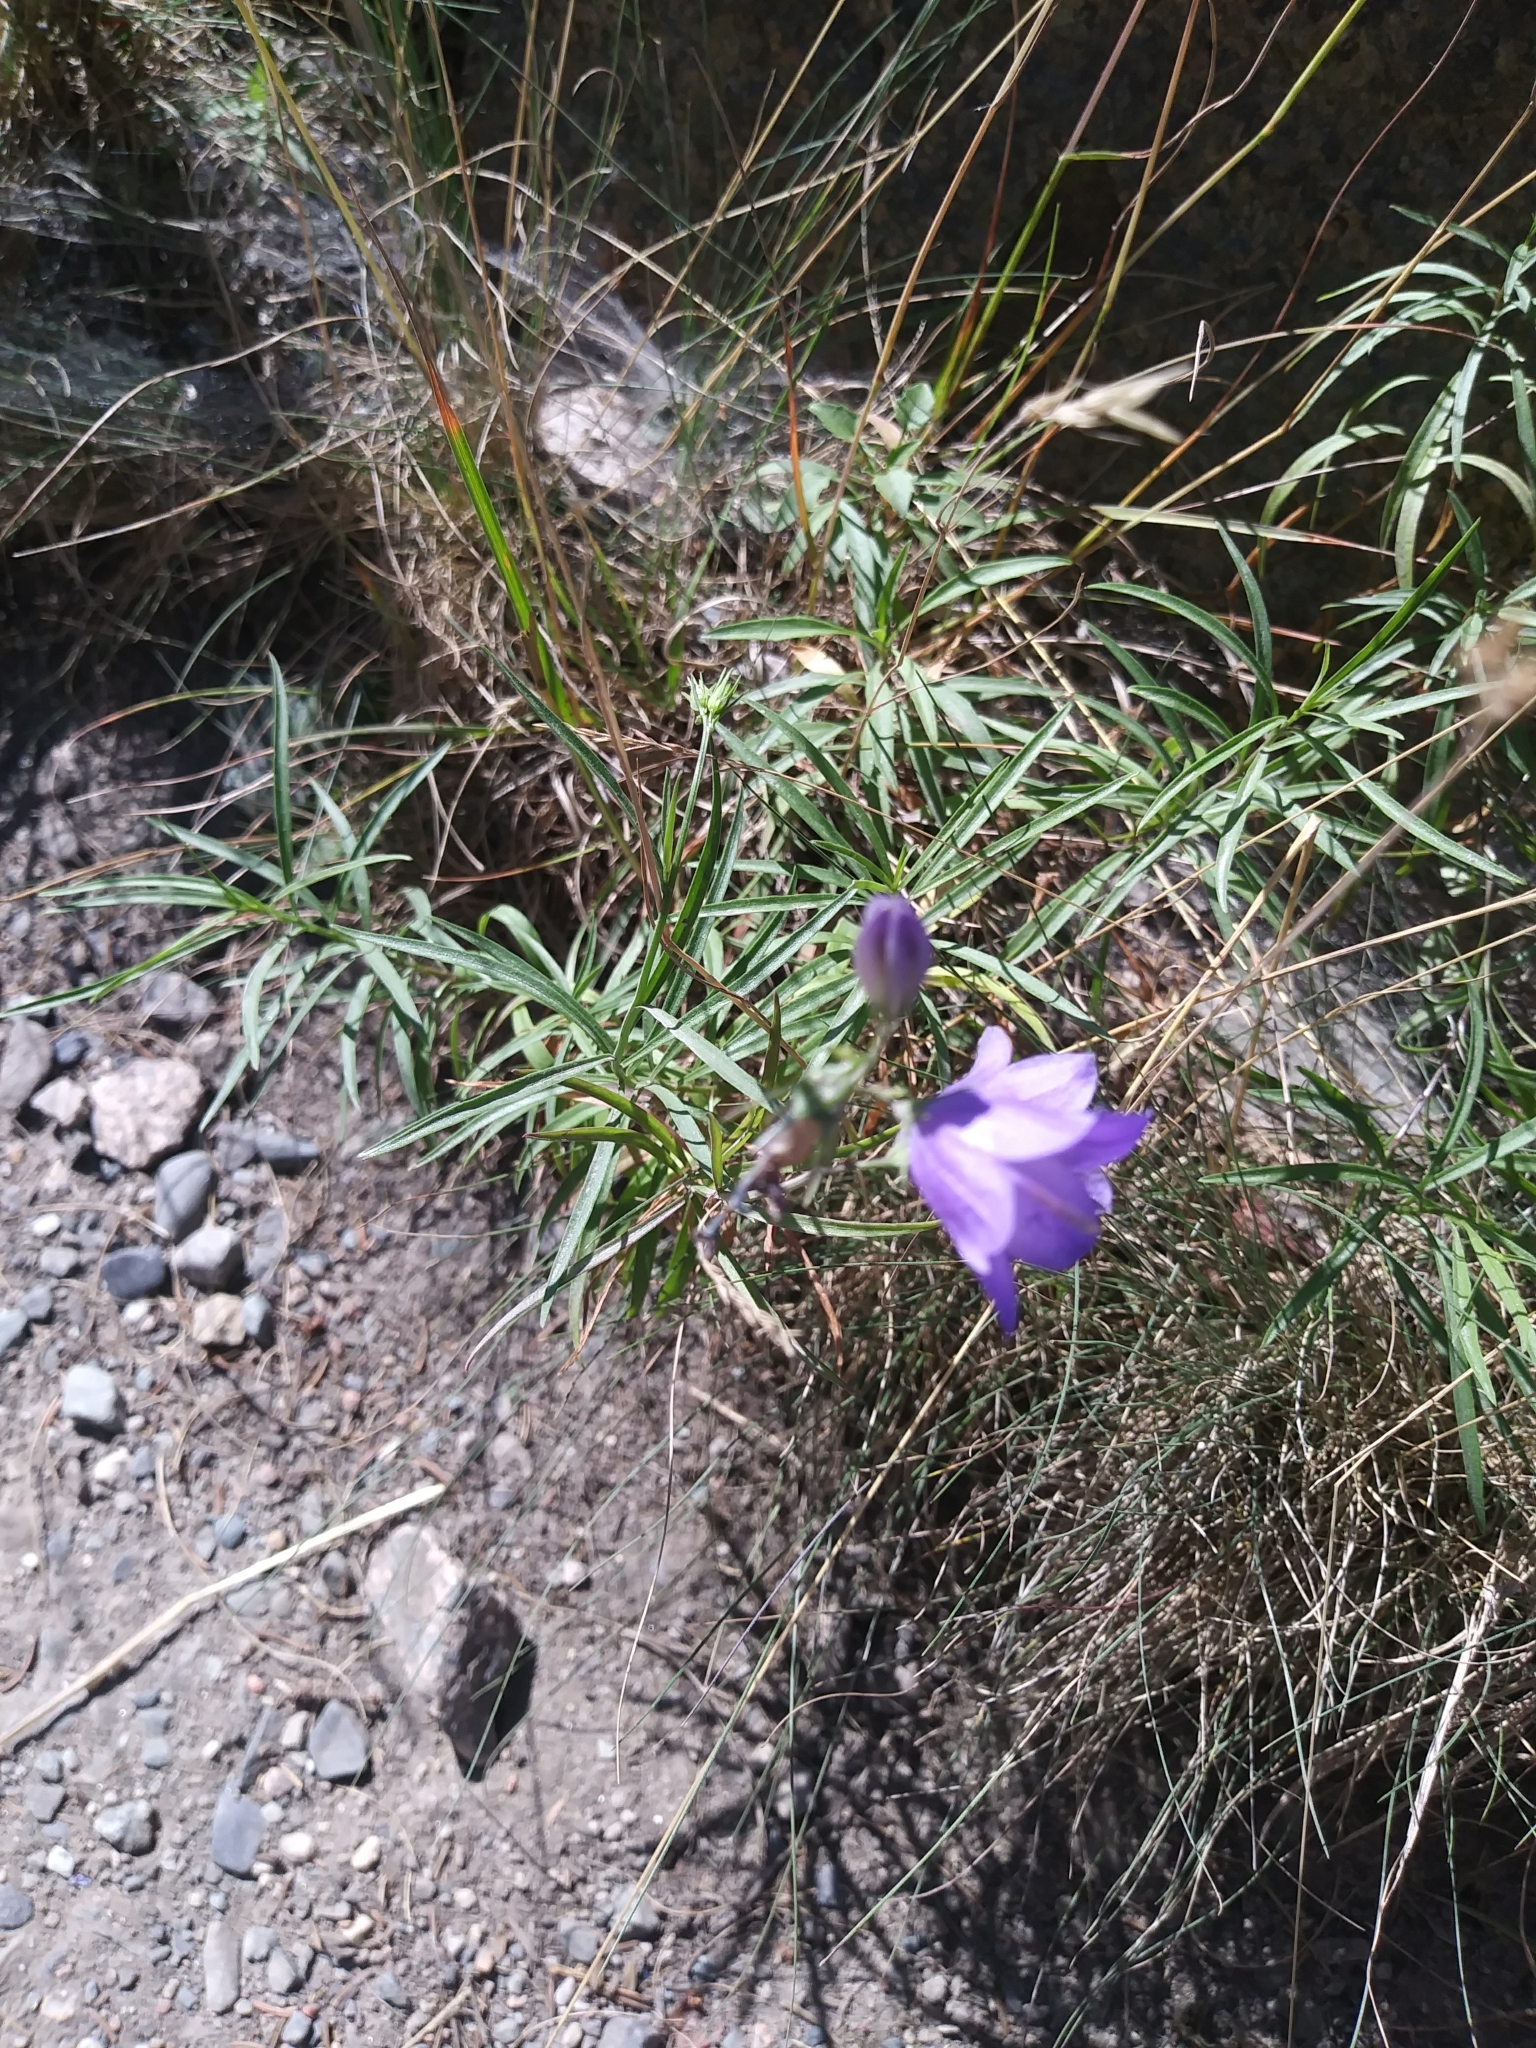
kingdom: Plantae
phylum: Tracheophyta
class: Magnoliopsida
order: Asterales
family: Campanulaceae
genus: Campanula
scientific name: Campanula intercedens
